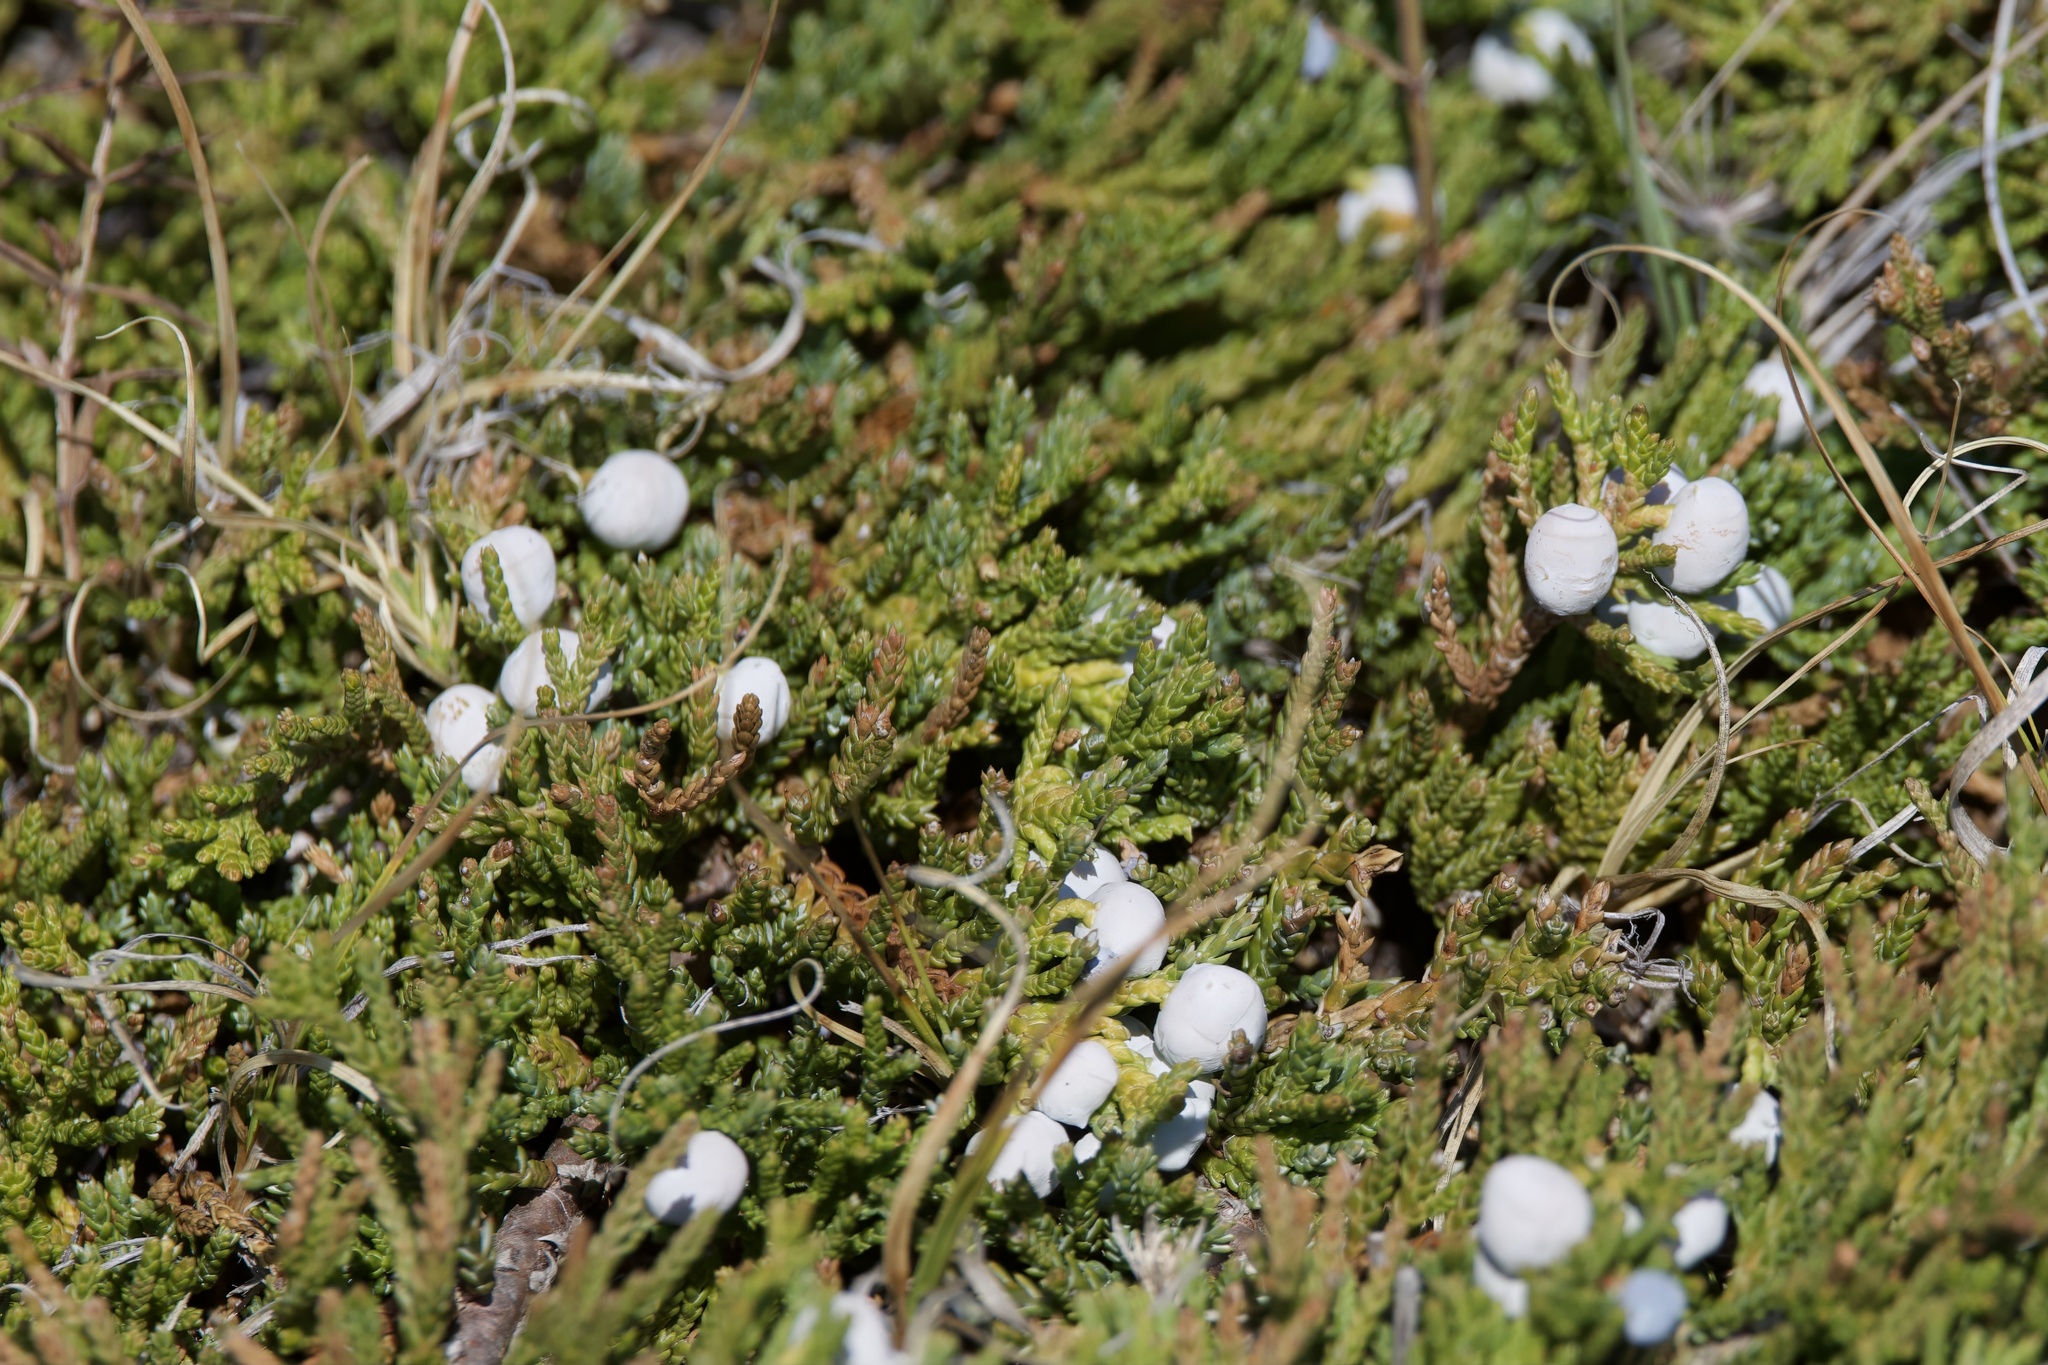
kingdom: Plantae
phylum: Tracheophyta
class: Pinopsida
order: Pinales
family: Cupressaceae
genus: Juniperus
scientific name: Juniperus horizontalis
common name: Creeping juniper
